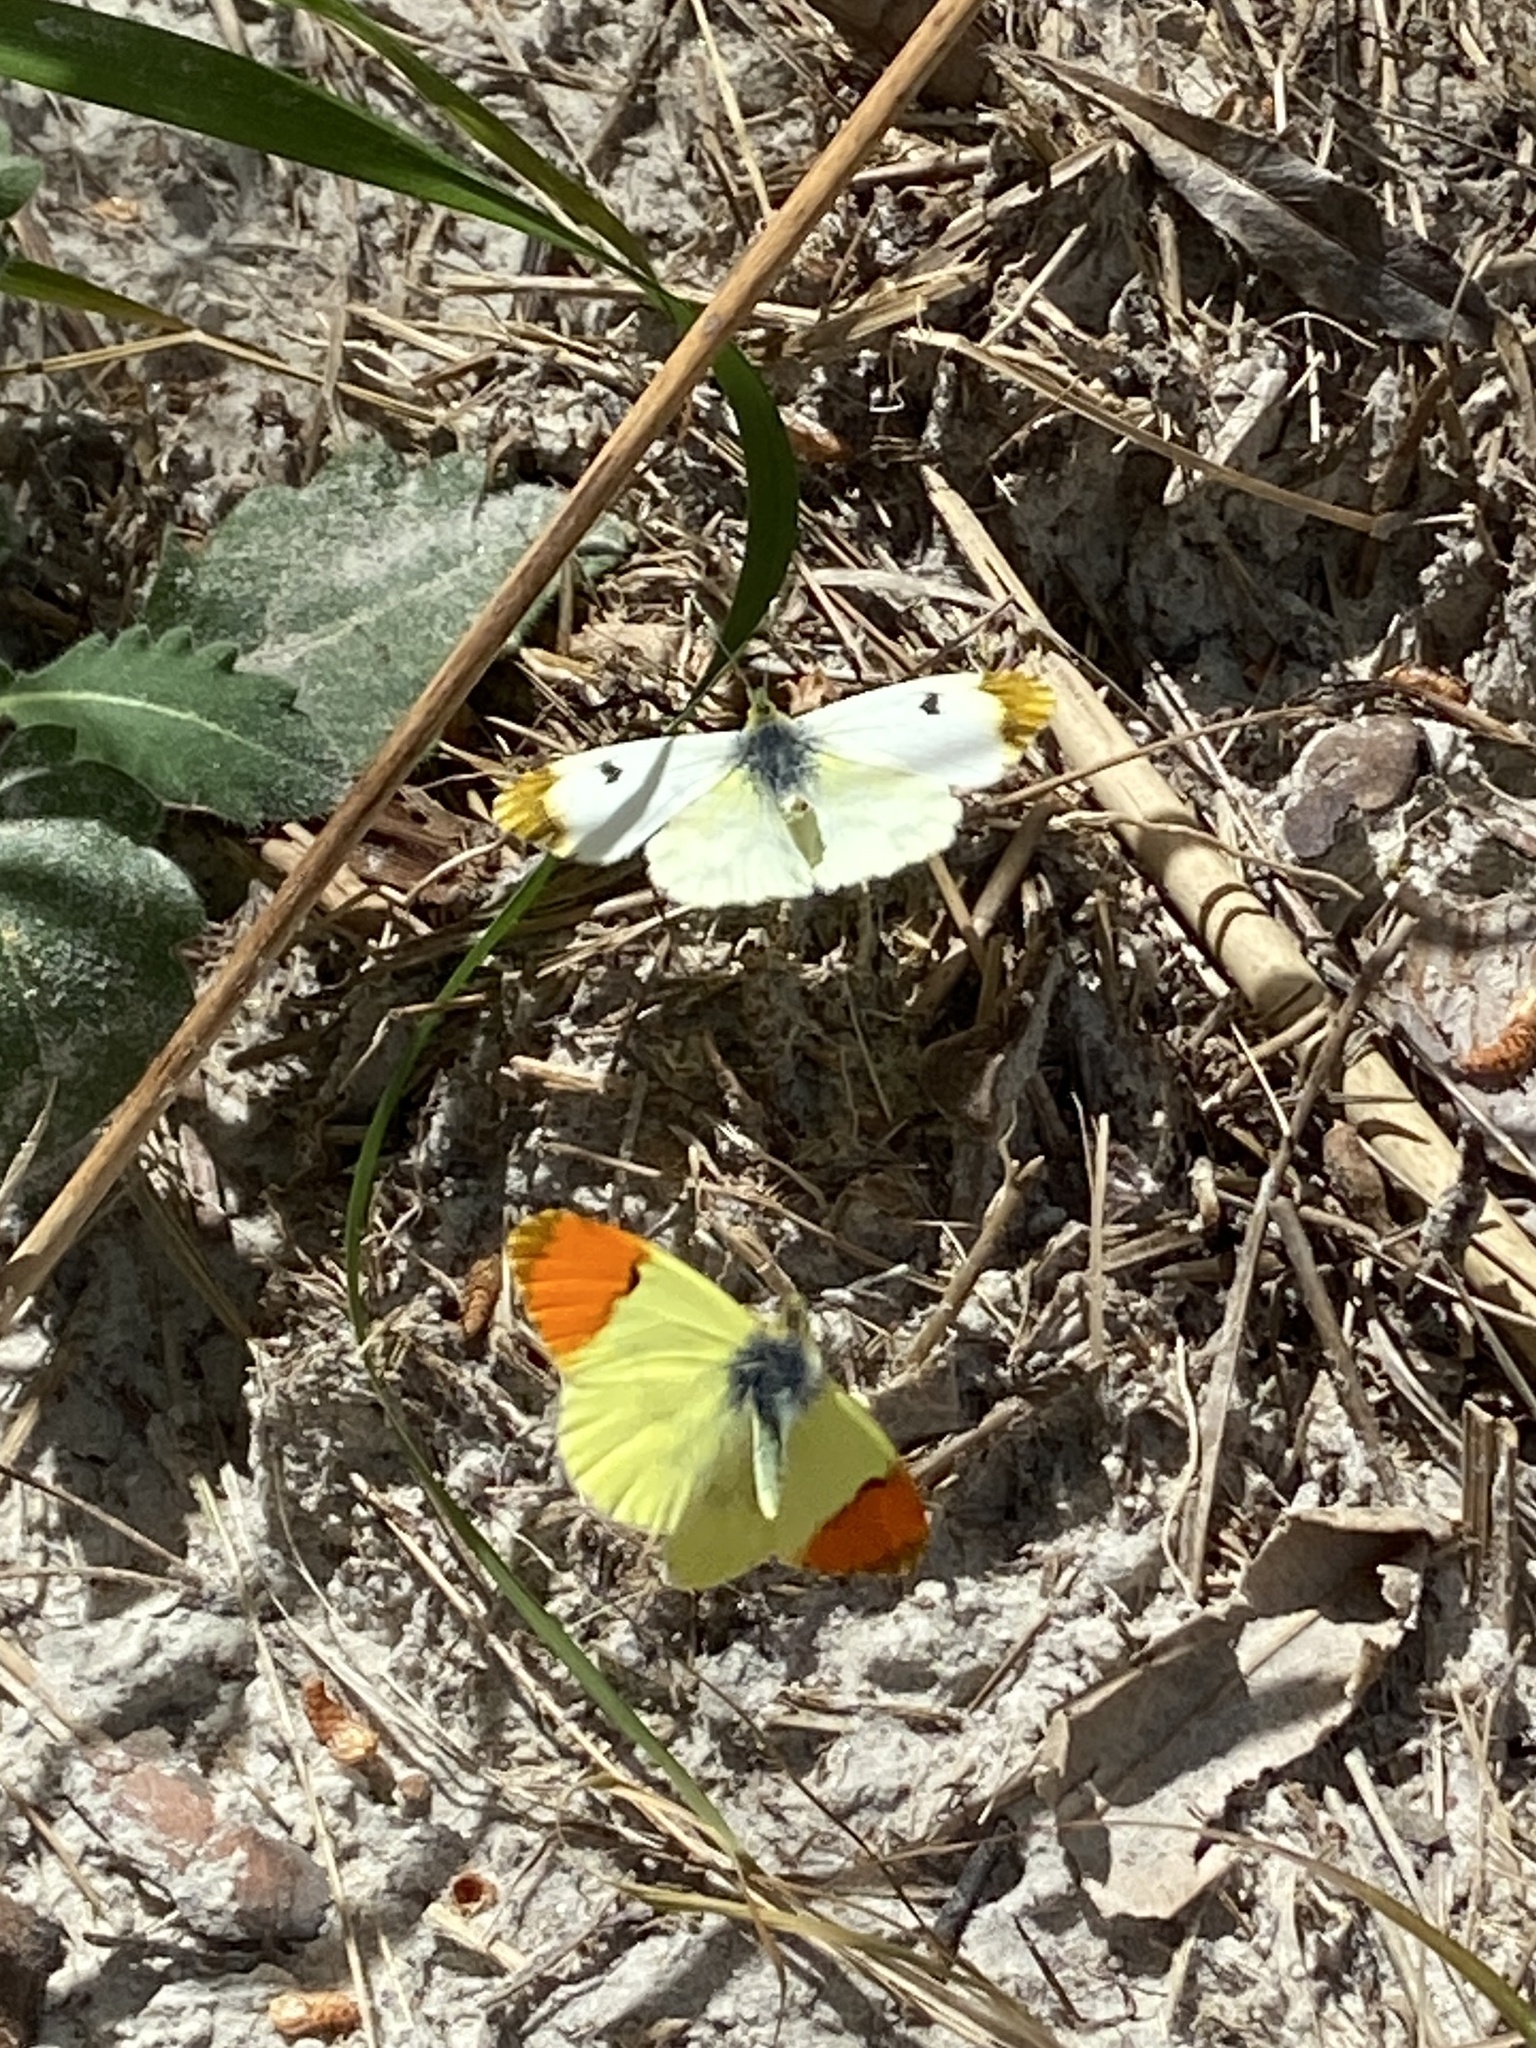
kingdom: Animalia
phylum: Arthropoda
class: Insecta
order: Lepidoptera
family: Pieridae
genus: Anthocharis
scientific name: Anthocharis euphenoides
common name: Provence orange-tip
